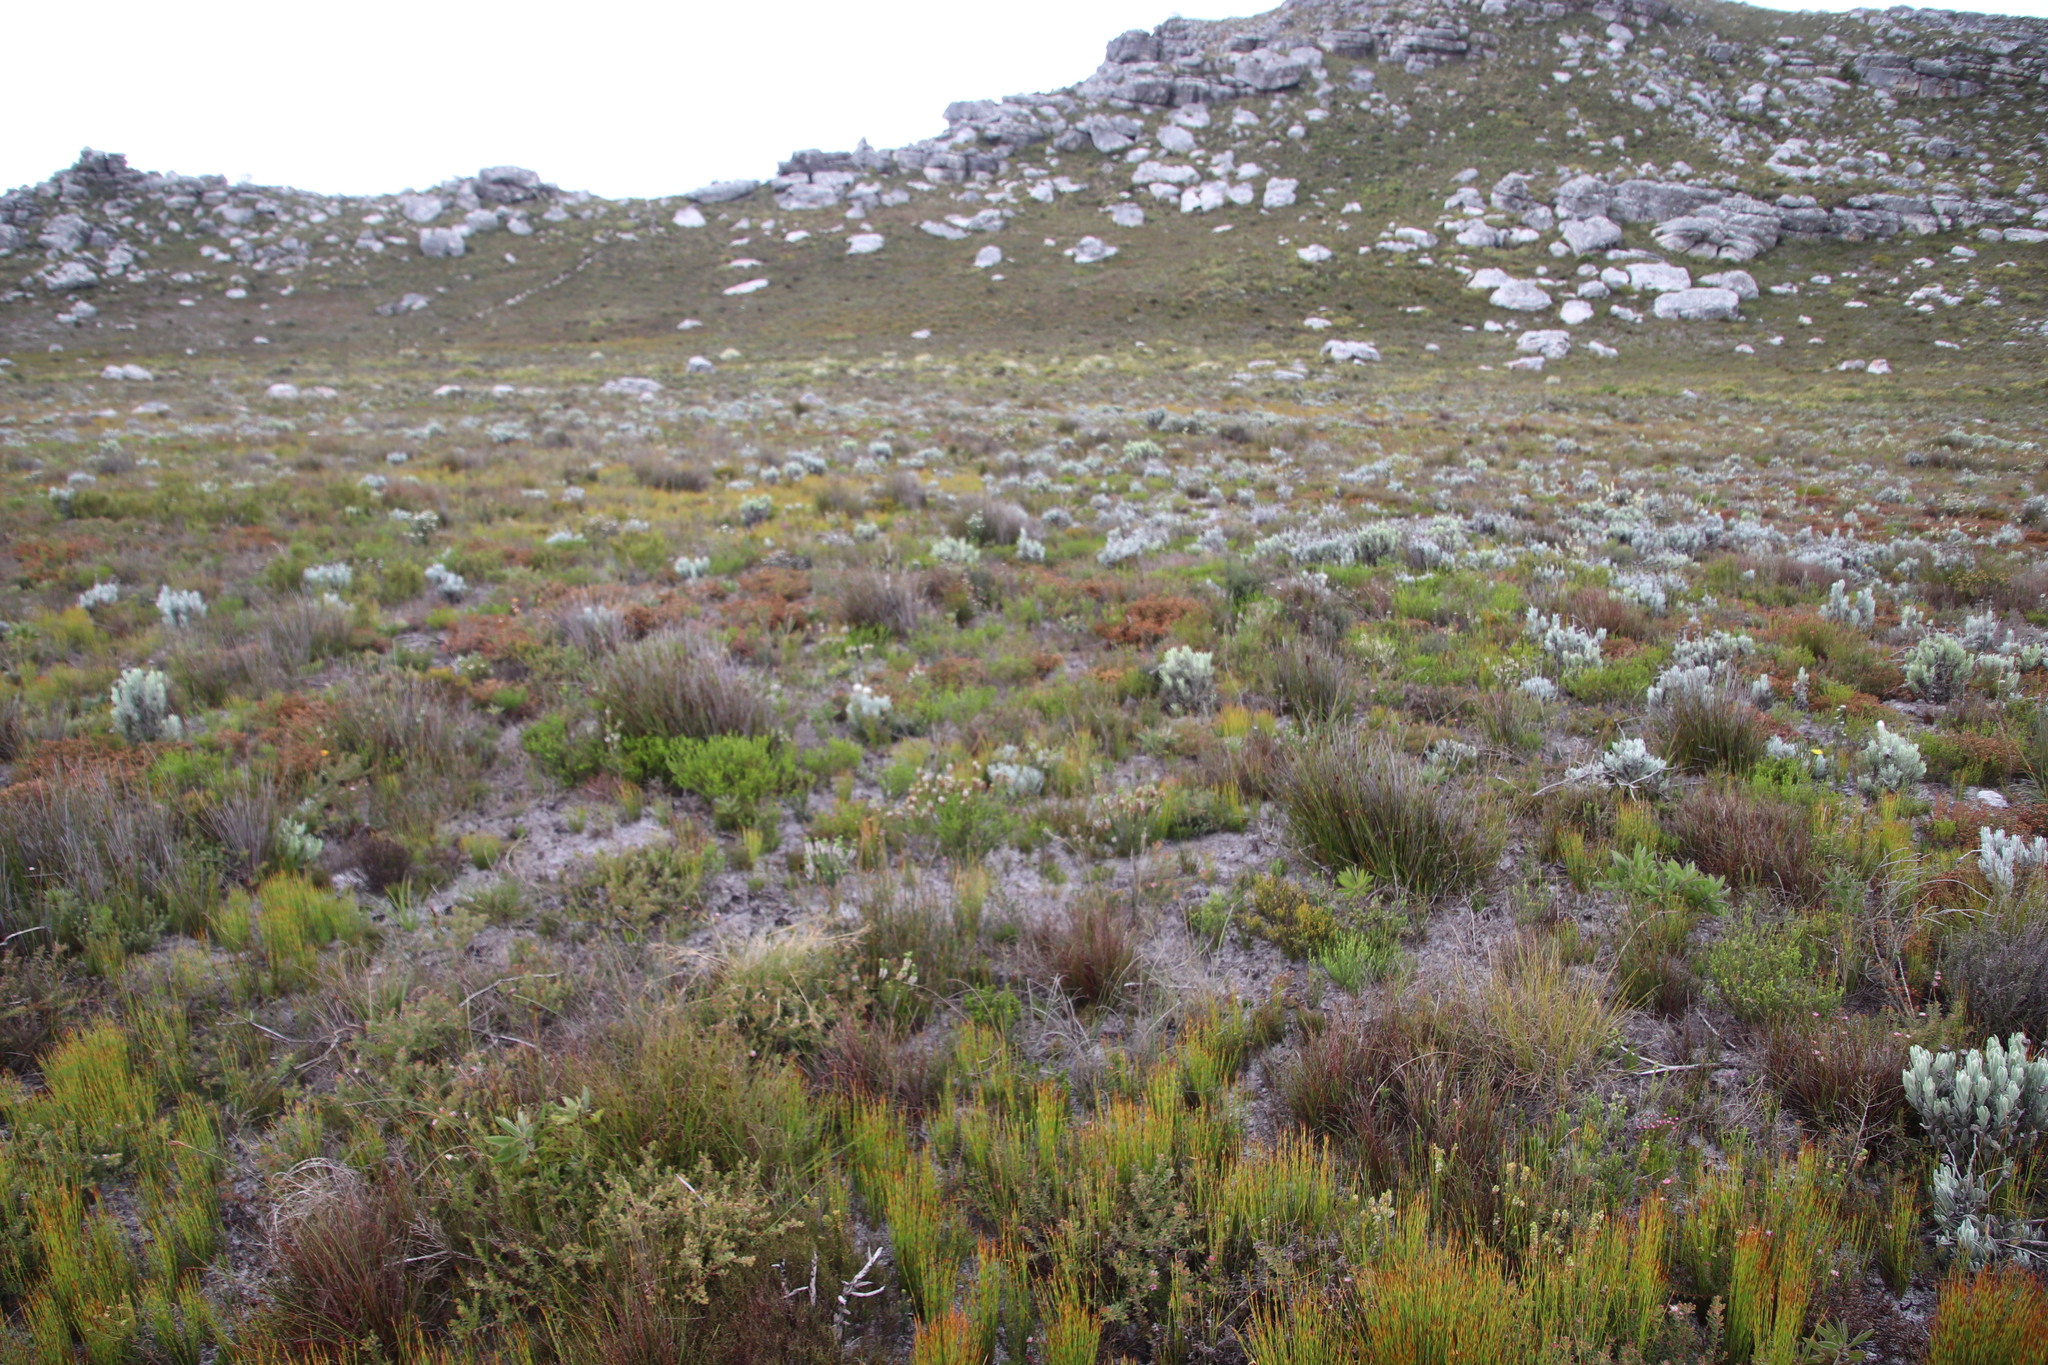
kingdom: Plantae
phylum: Tracheophyta
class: Magnoliopsida
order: Ericales
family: Ericaceae
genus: Erica
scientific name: Erica pyxidiflora
